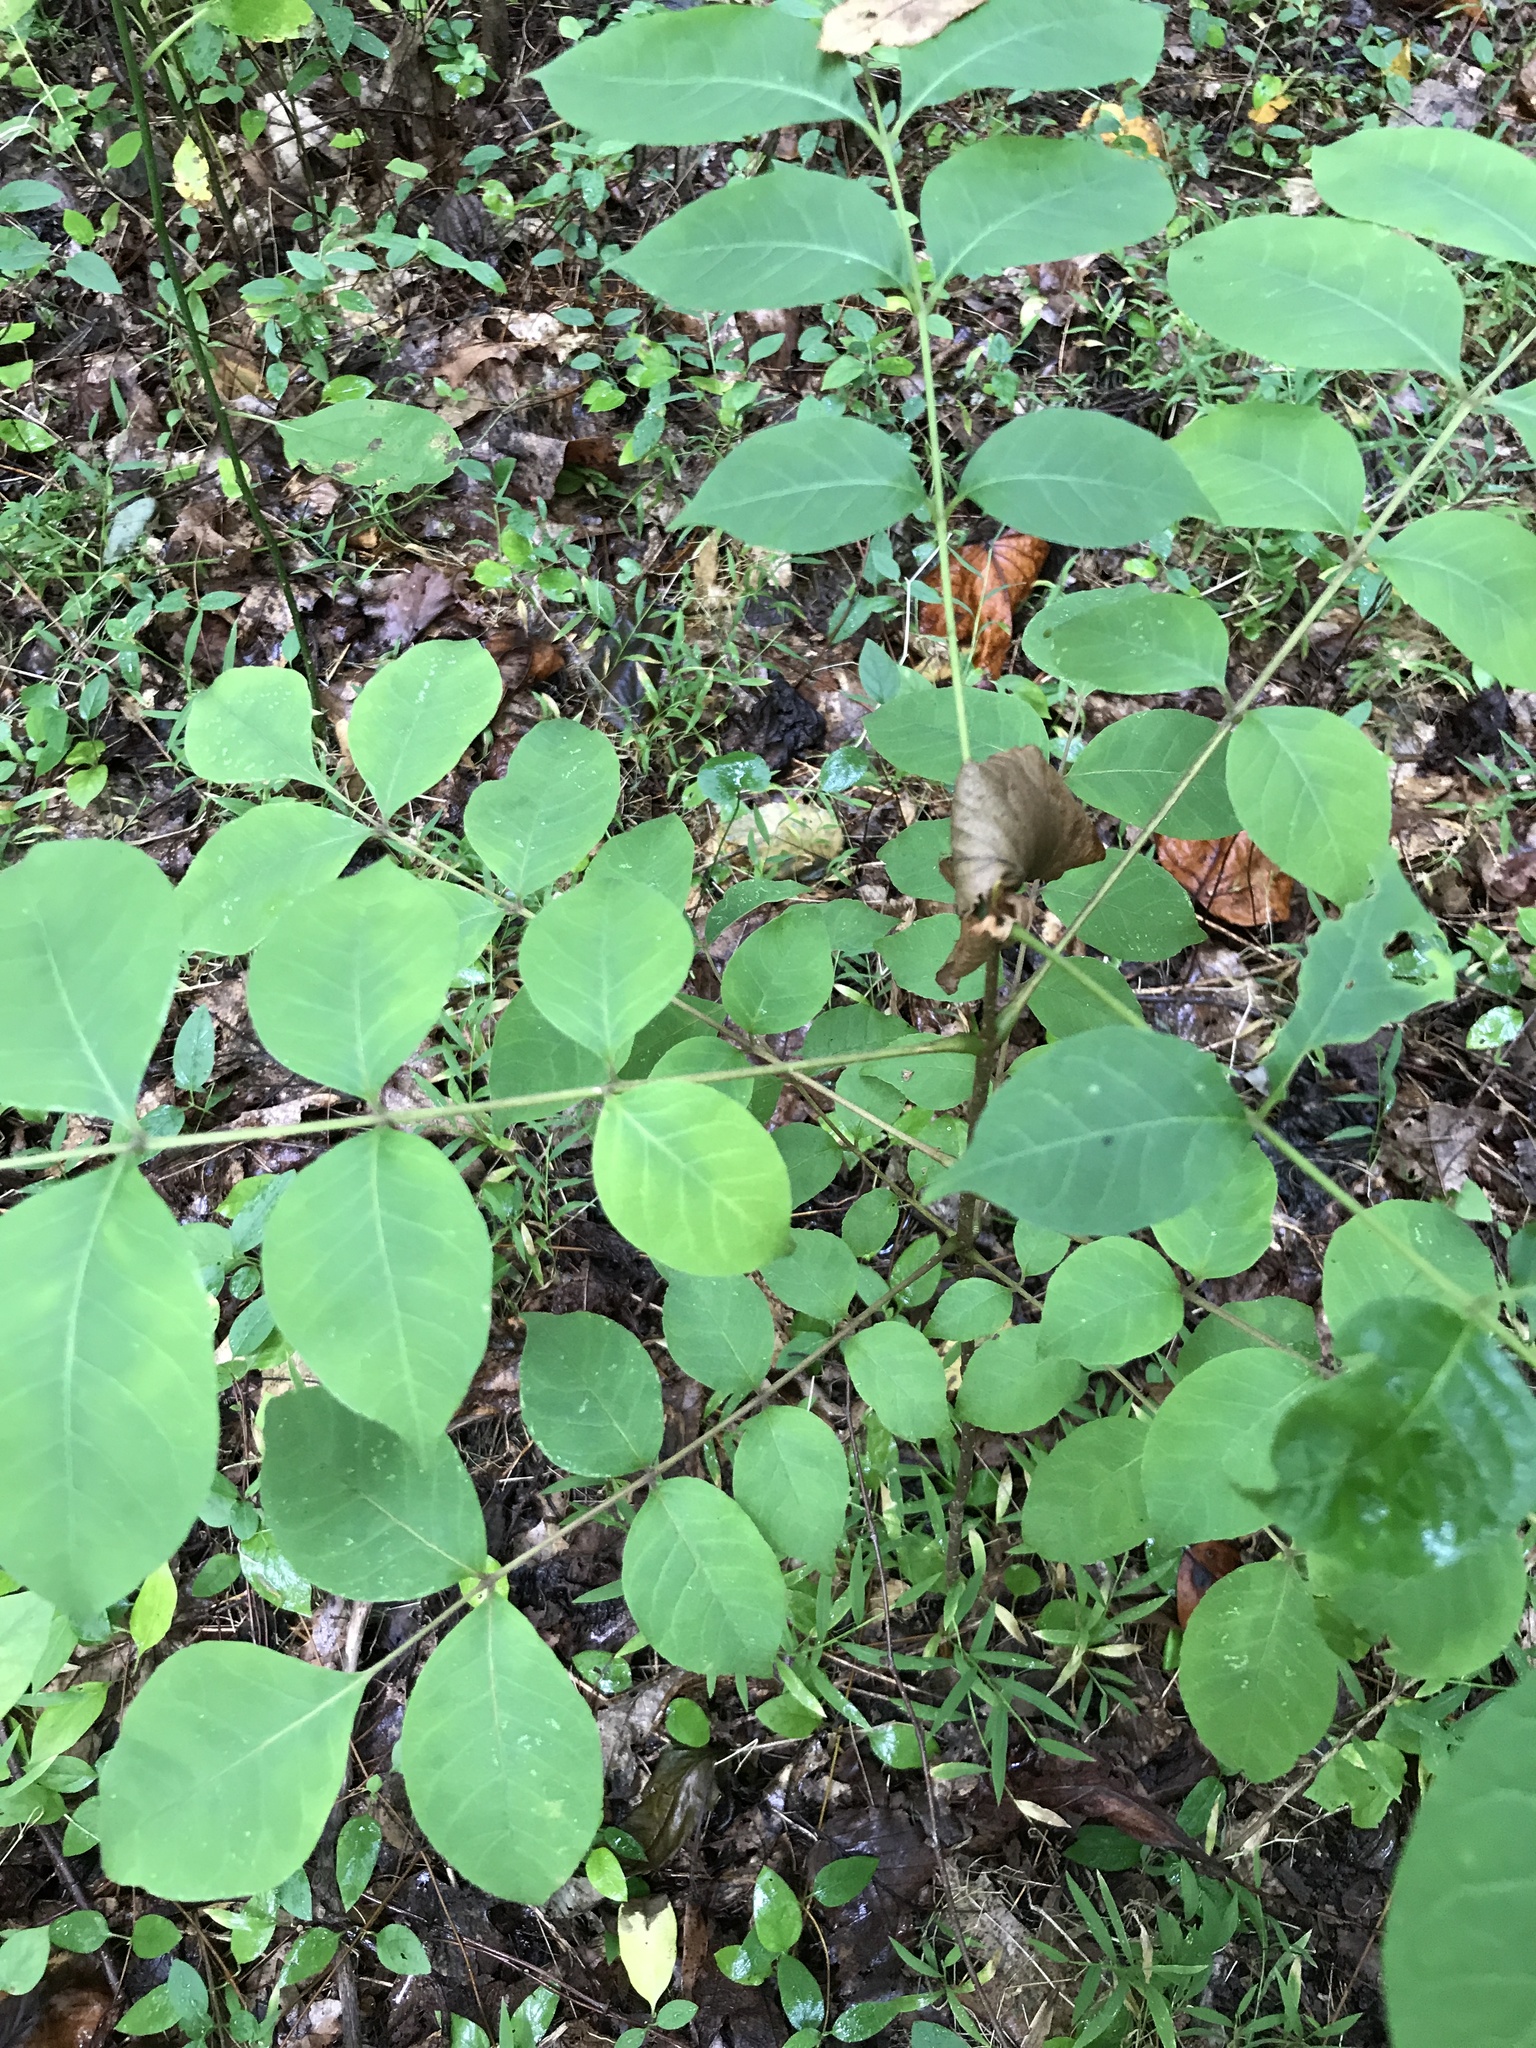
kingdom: Plantae
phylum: Tracheophyta
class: Magnoliopsida
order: Sapindales
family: Rutaceae
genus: Phellodendron
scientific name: Phellodendron amurense
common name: Amur corktree
